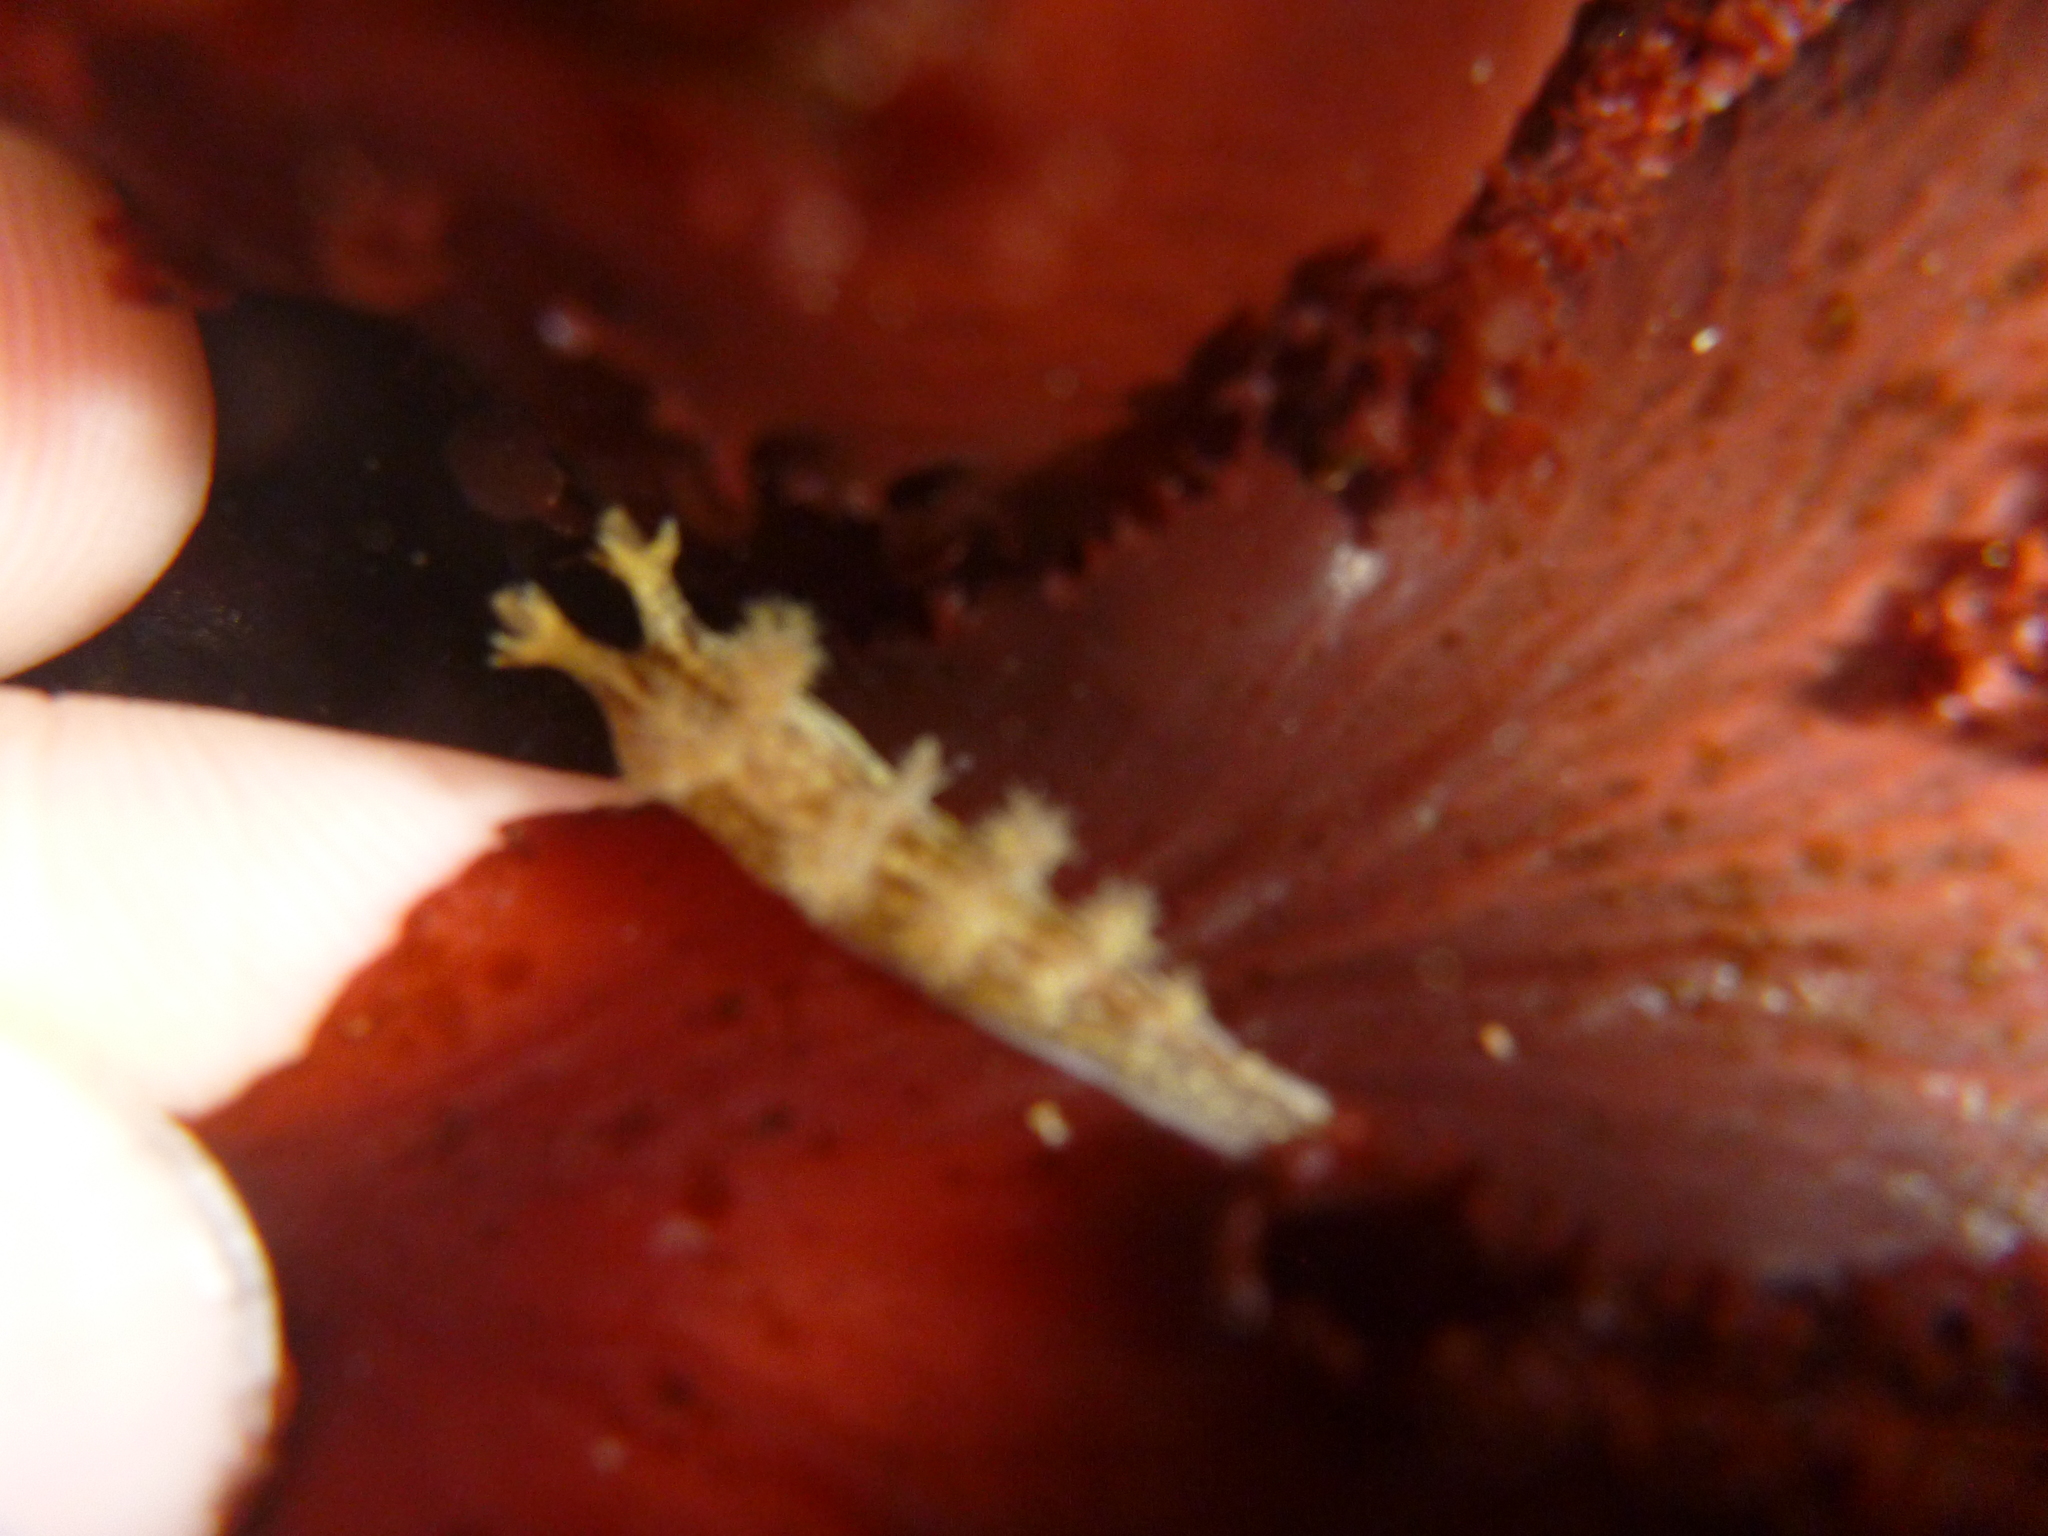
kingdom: Animalia
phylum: Mollusca
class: Gastropoda
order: Nudibranchia
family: Dendronotidae
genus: Dendronotus
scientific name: Dendronotus subramosus
